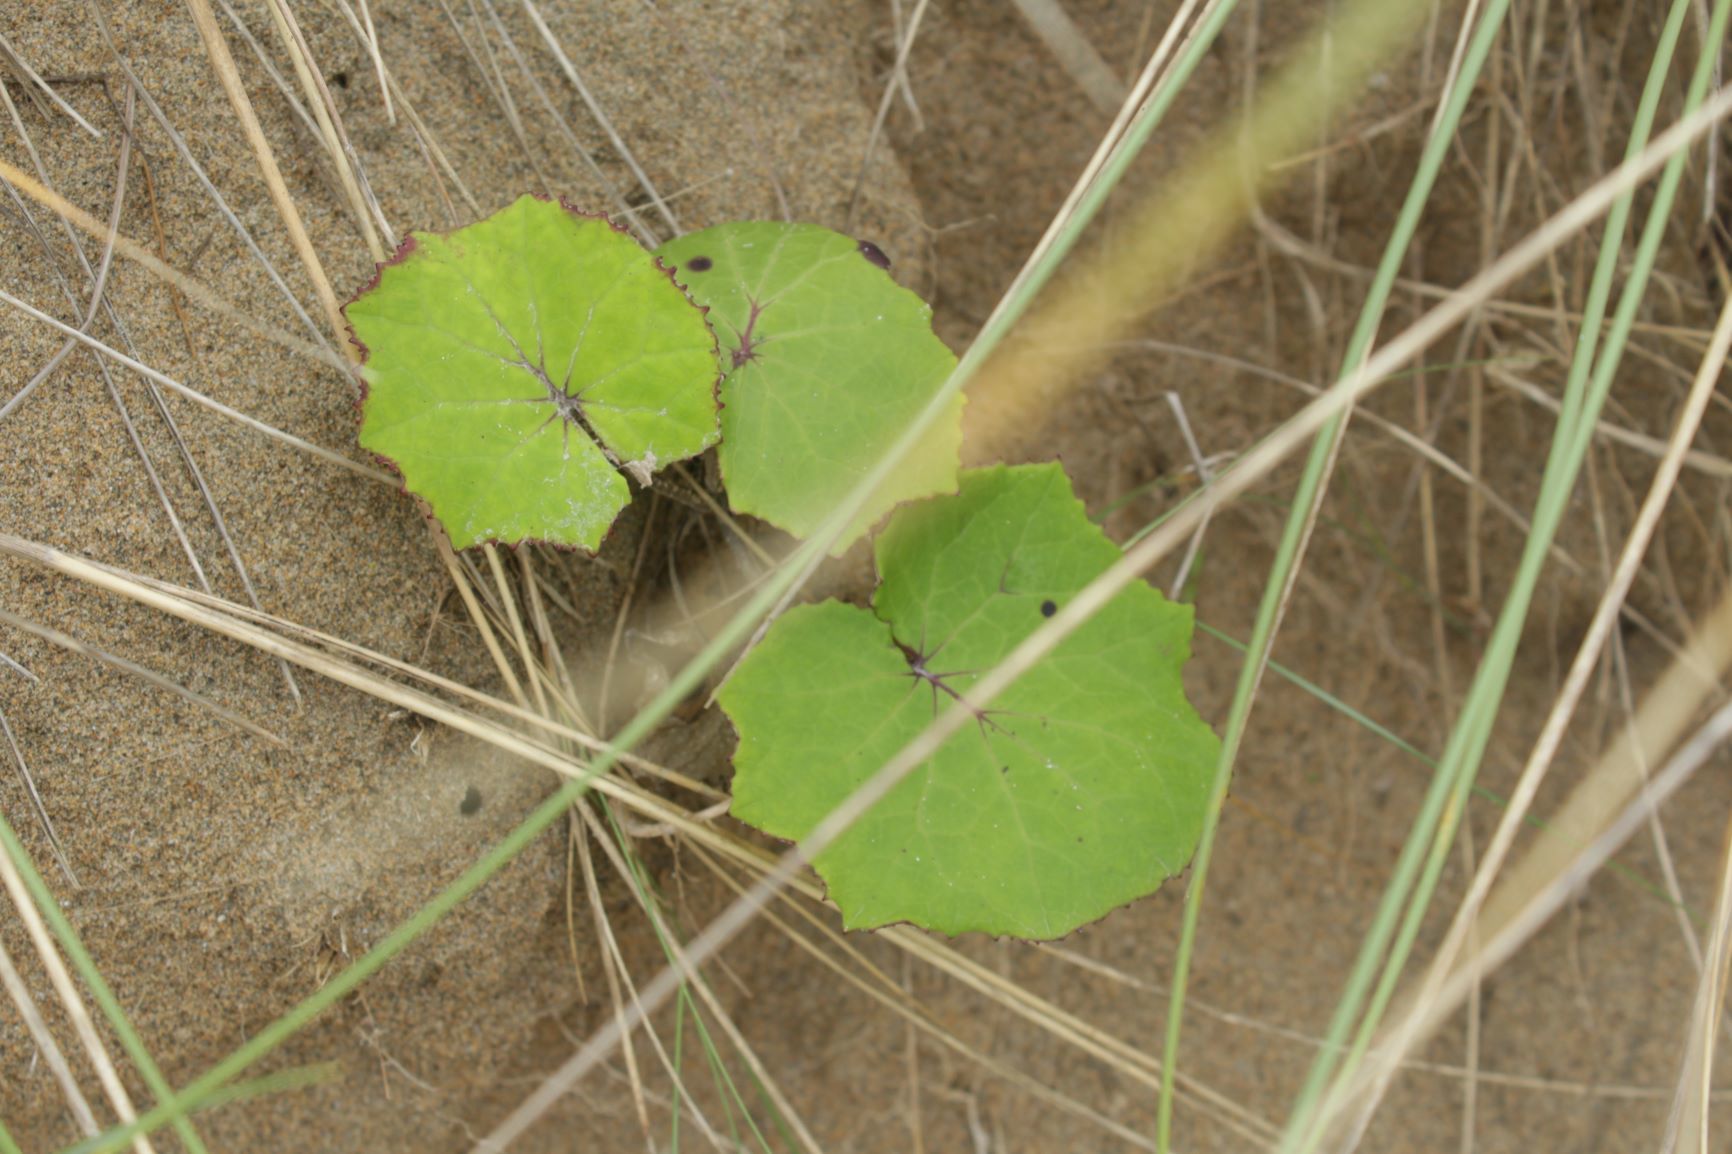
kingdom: Plantae
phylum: Tracheophyta
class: Magnoliopsida
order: Asterales
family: Asteraceae
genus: Tussilago
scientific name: Tussilago farfara
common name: Coltsfoot
